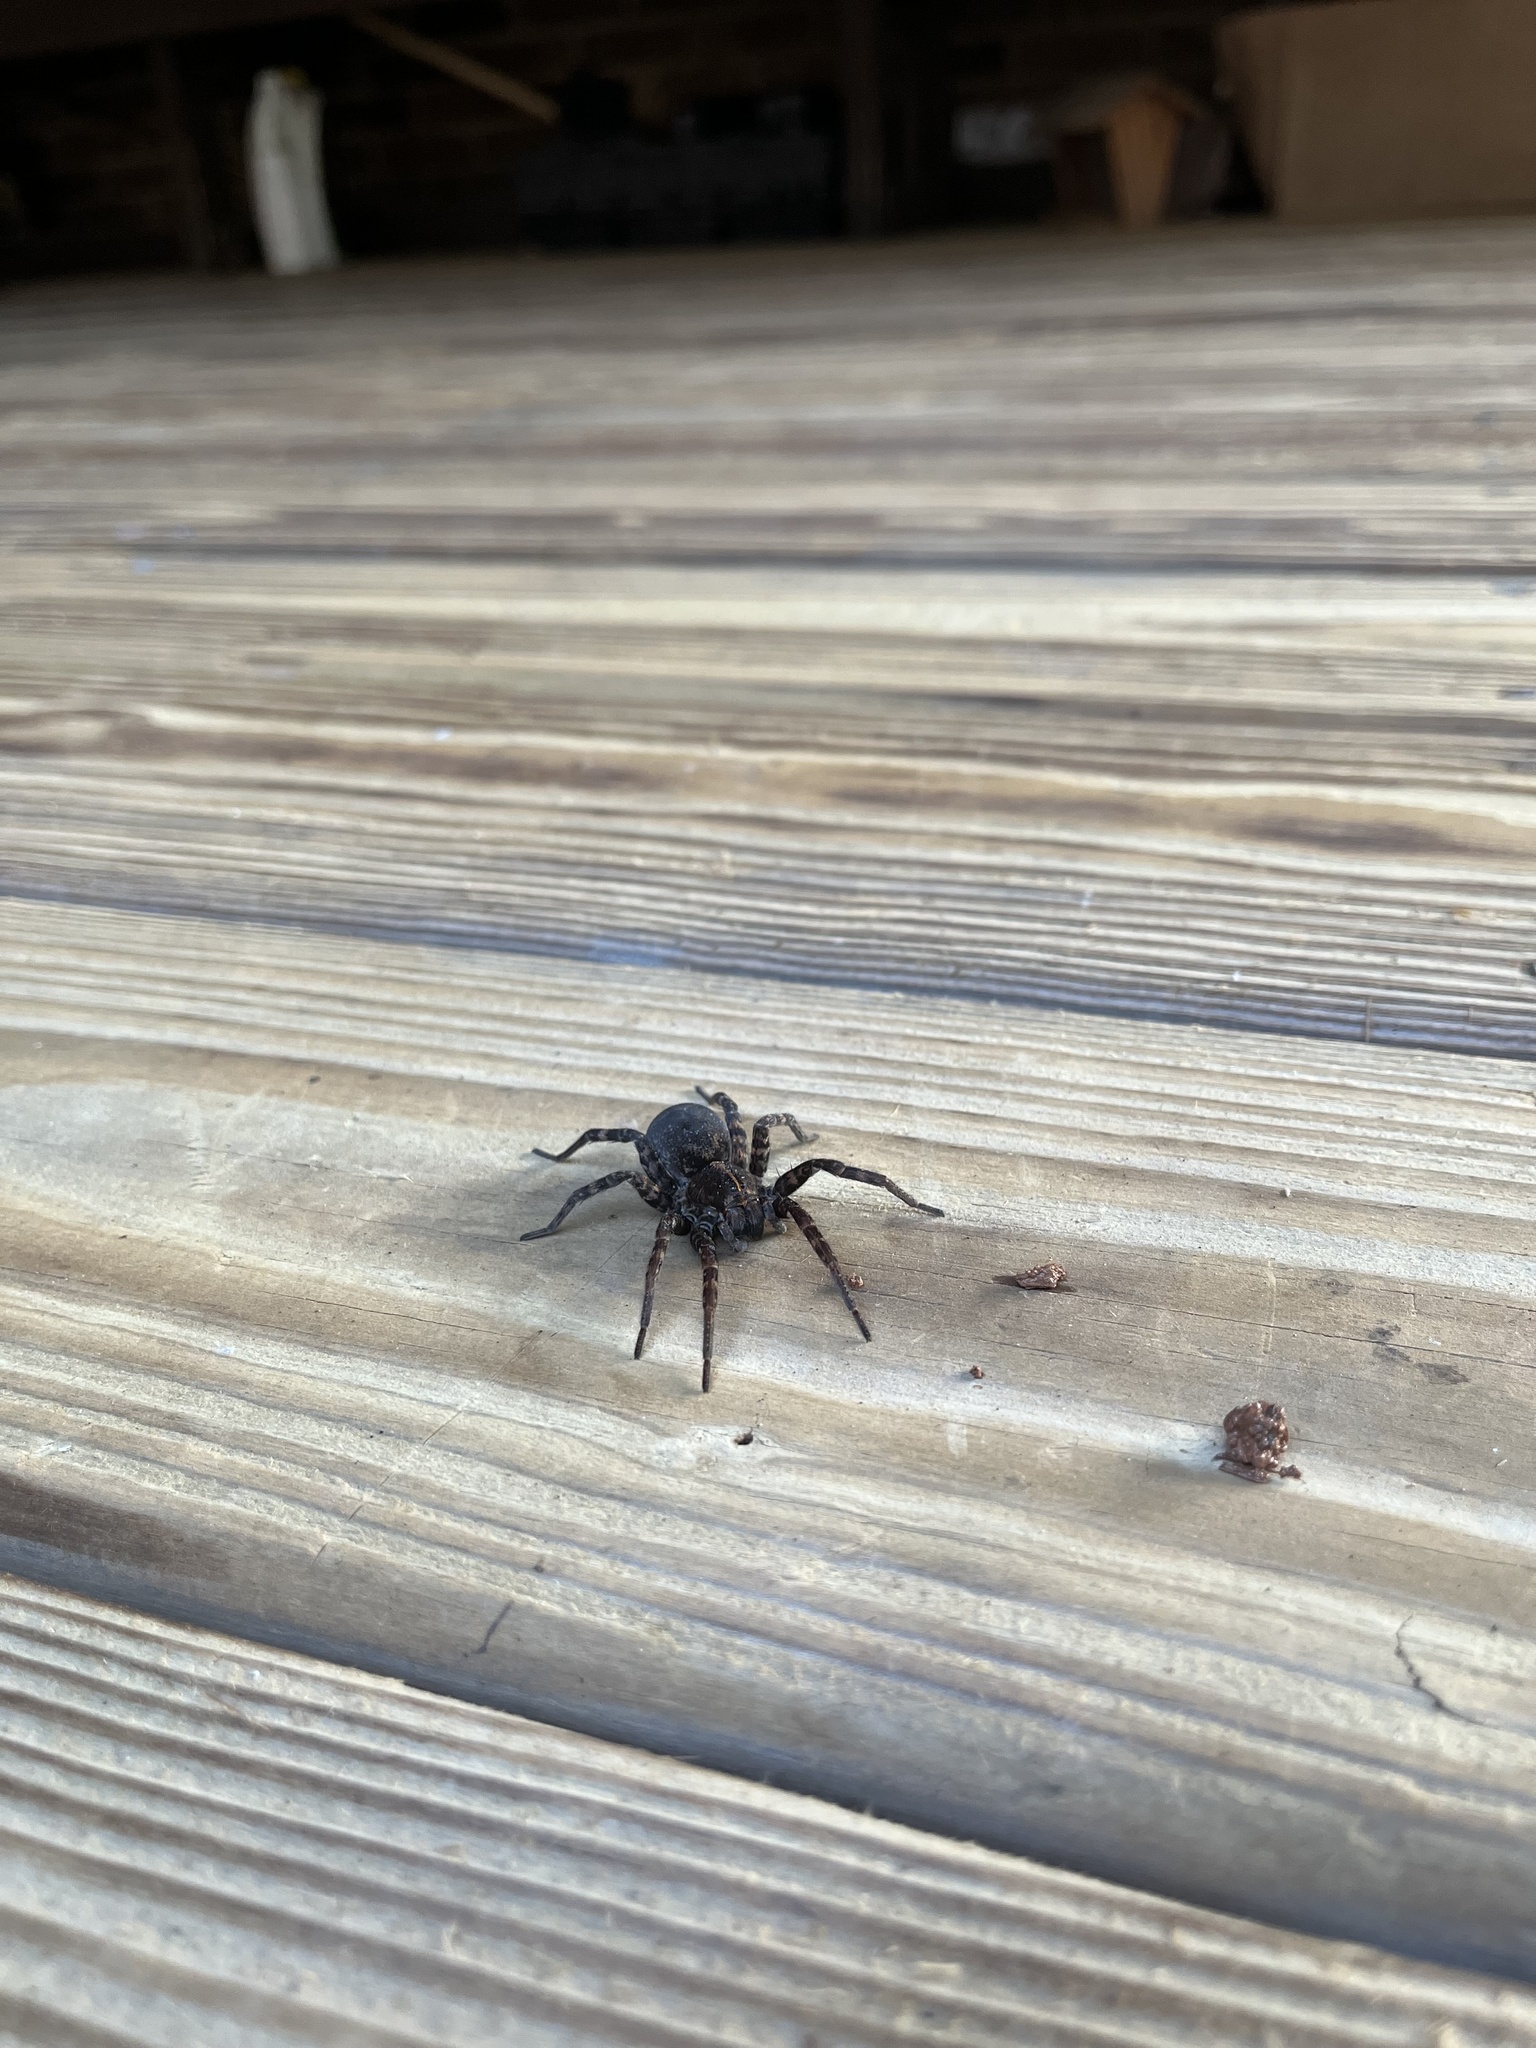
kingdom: Animalia
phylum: Arthropoda
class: Arachnida
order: Araneae
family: Lycosidae
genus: Tigrosa
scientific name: Tigrosa georgicola
